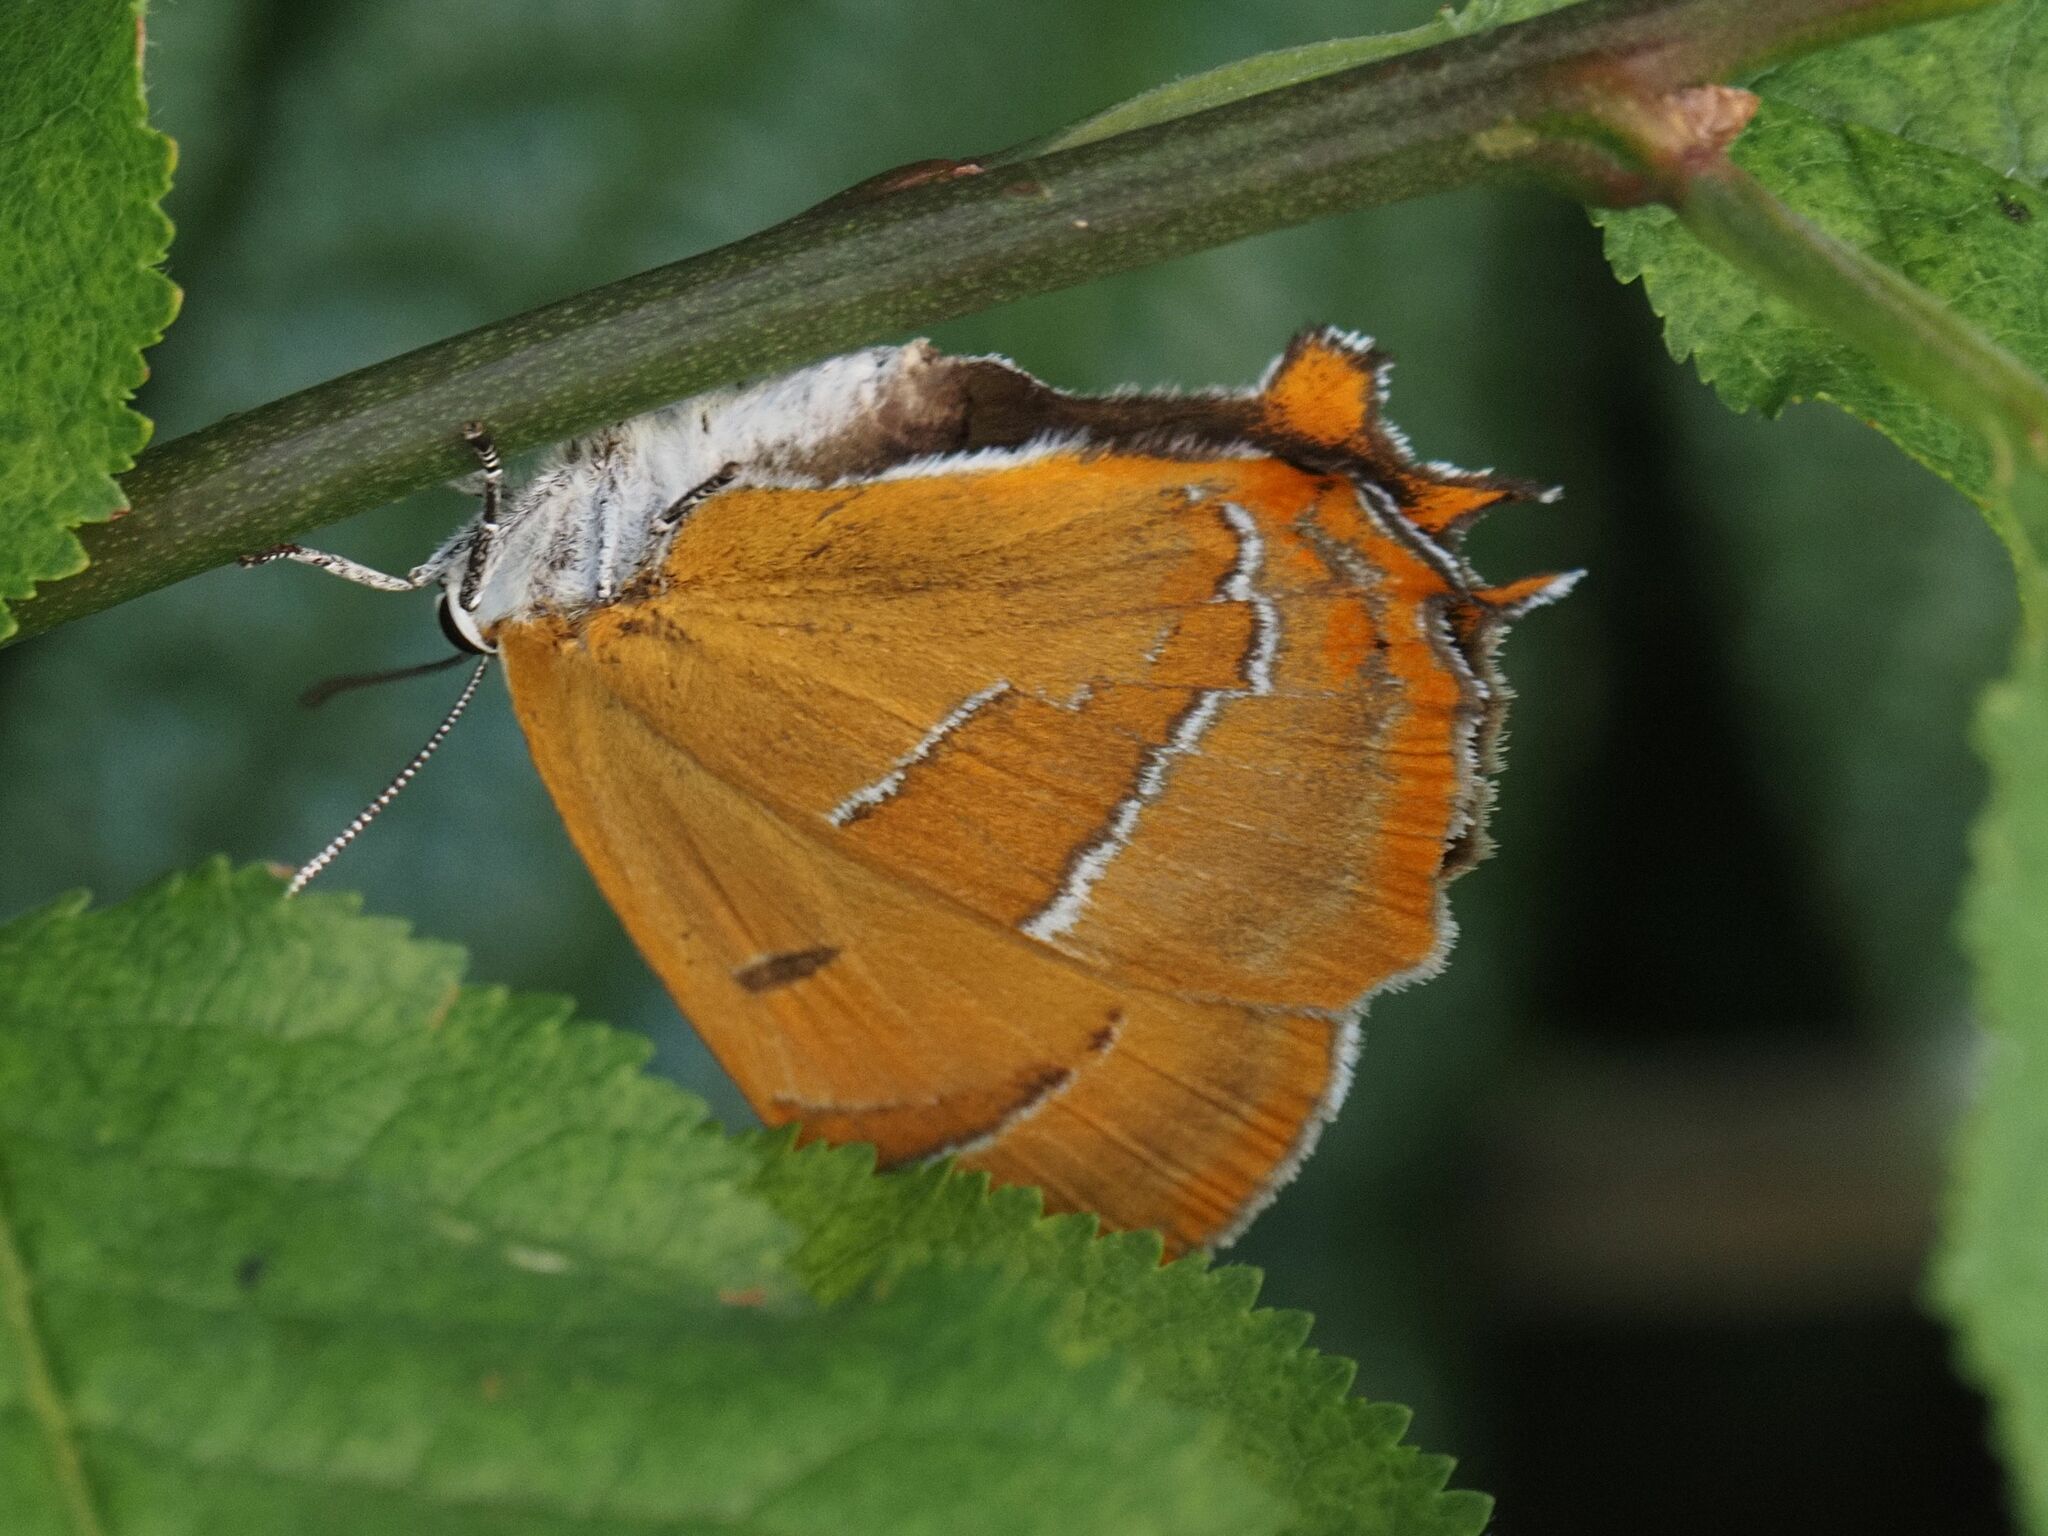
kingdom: Animalia
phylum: Arthropoda
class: Insecta
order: Lepidoptera
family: Lycaenidae
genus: Thecla
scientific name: Thecla betulae
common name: Brown hairstreak
